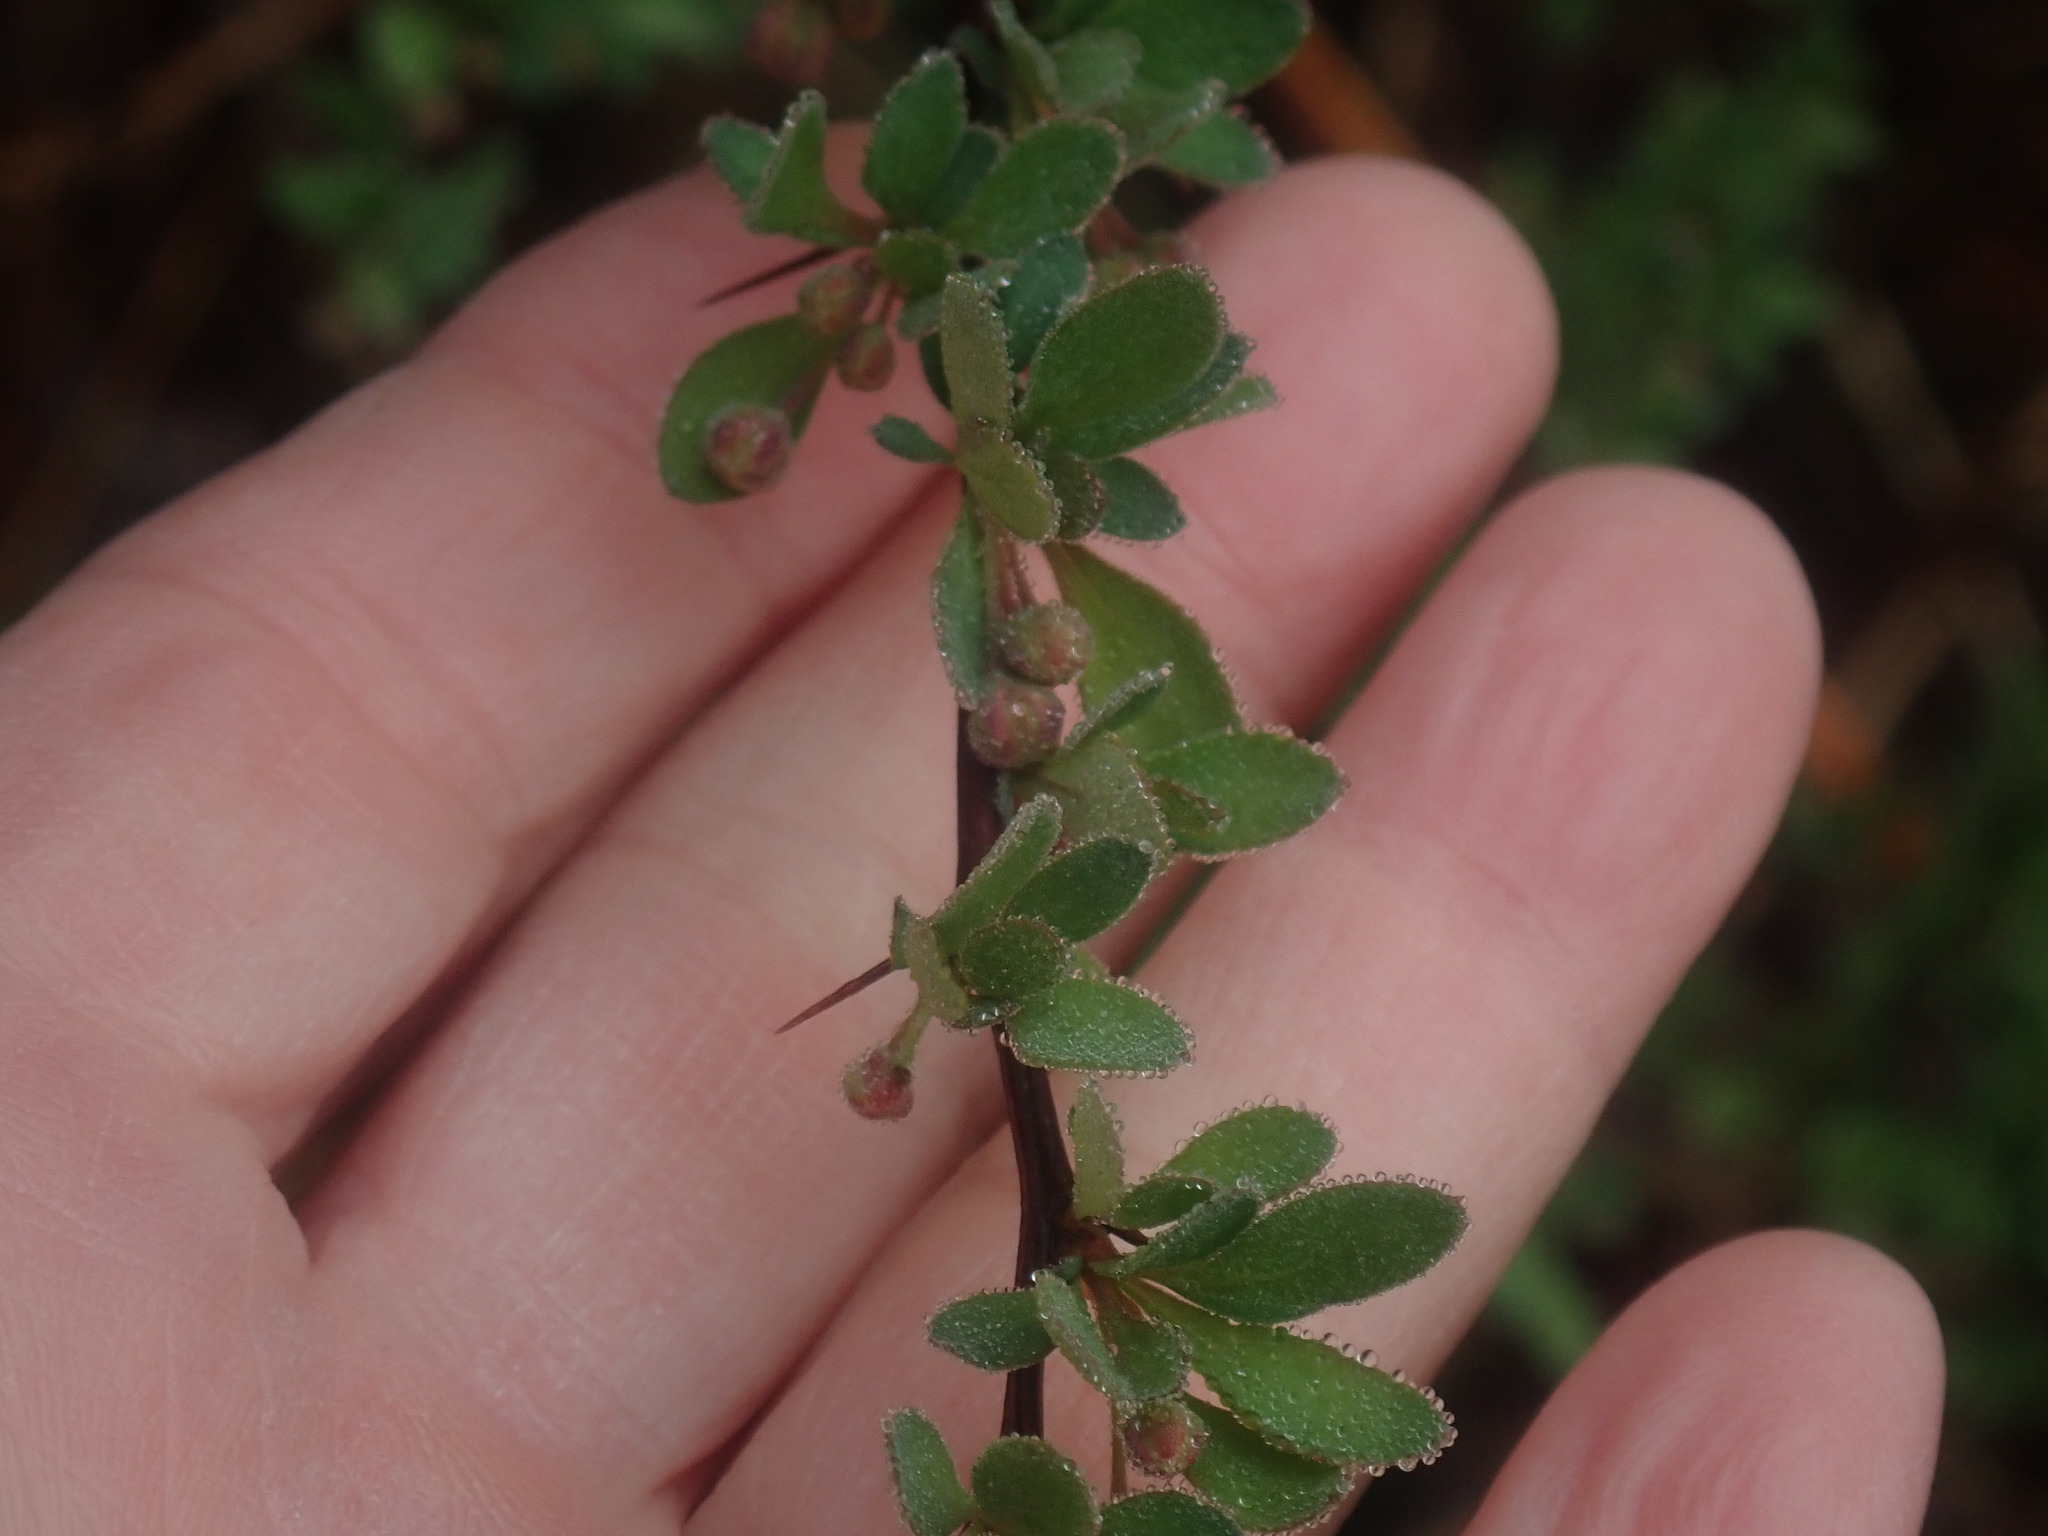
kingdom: Plantae
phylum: Tracheophyta
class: Magnoliopsida
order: Ranunculales
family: Berberidaceae
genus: Berberis
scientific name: Berberis thunbergii
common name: Japanese barberry
